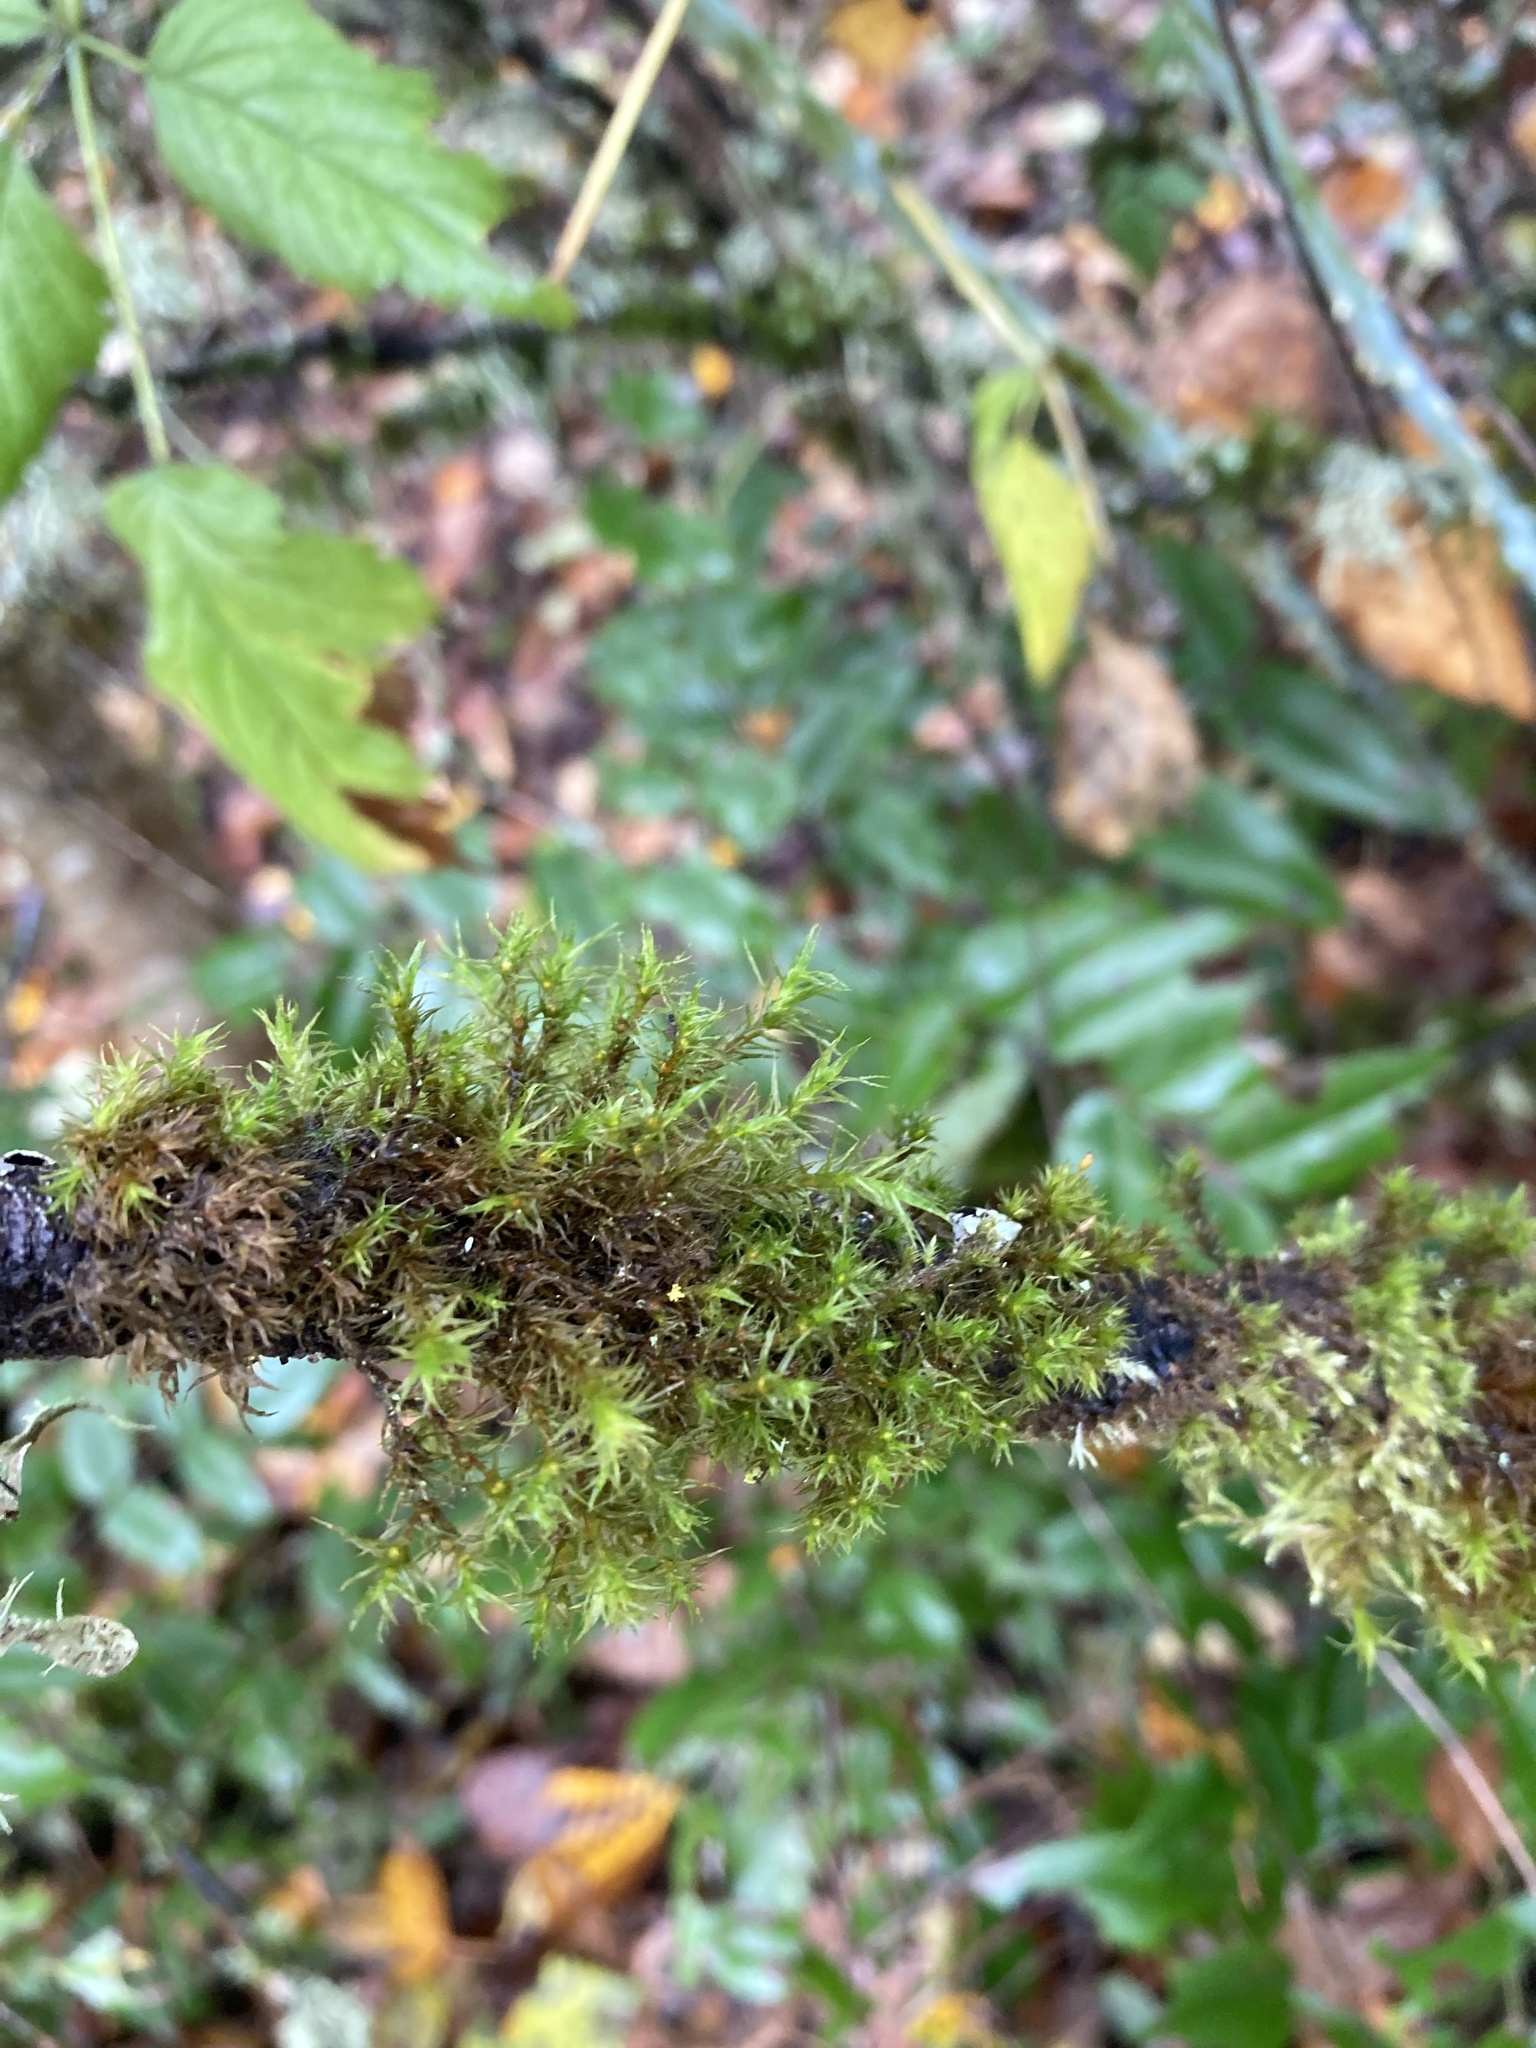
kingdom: Plantae
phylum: Bryophyta
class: Bryopsida
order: Orthotrichales
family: Orthotrichaceae
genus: Pulvigera
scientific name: Pulvigera lyellii
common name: Lyell's bristle-moss
